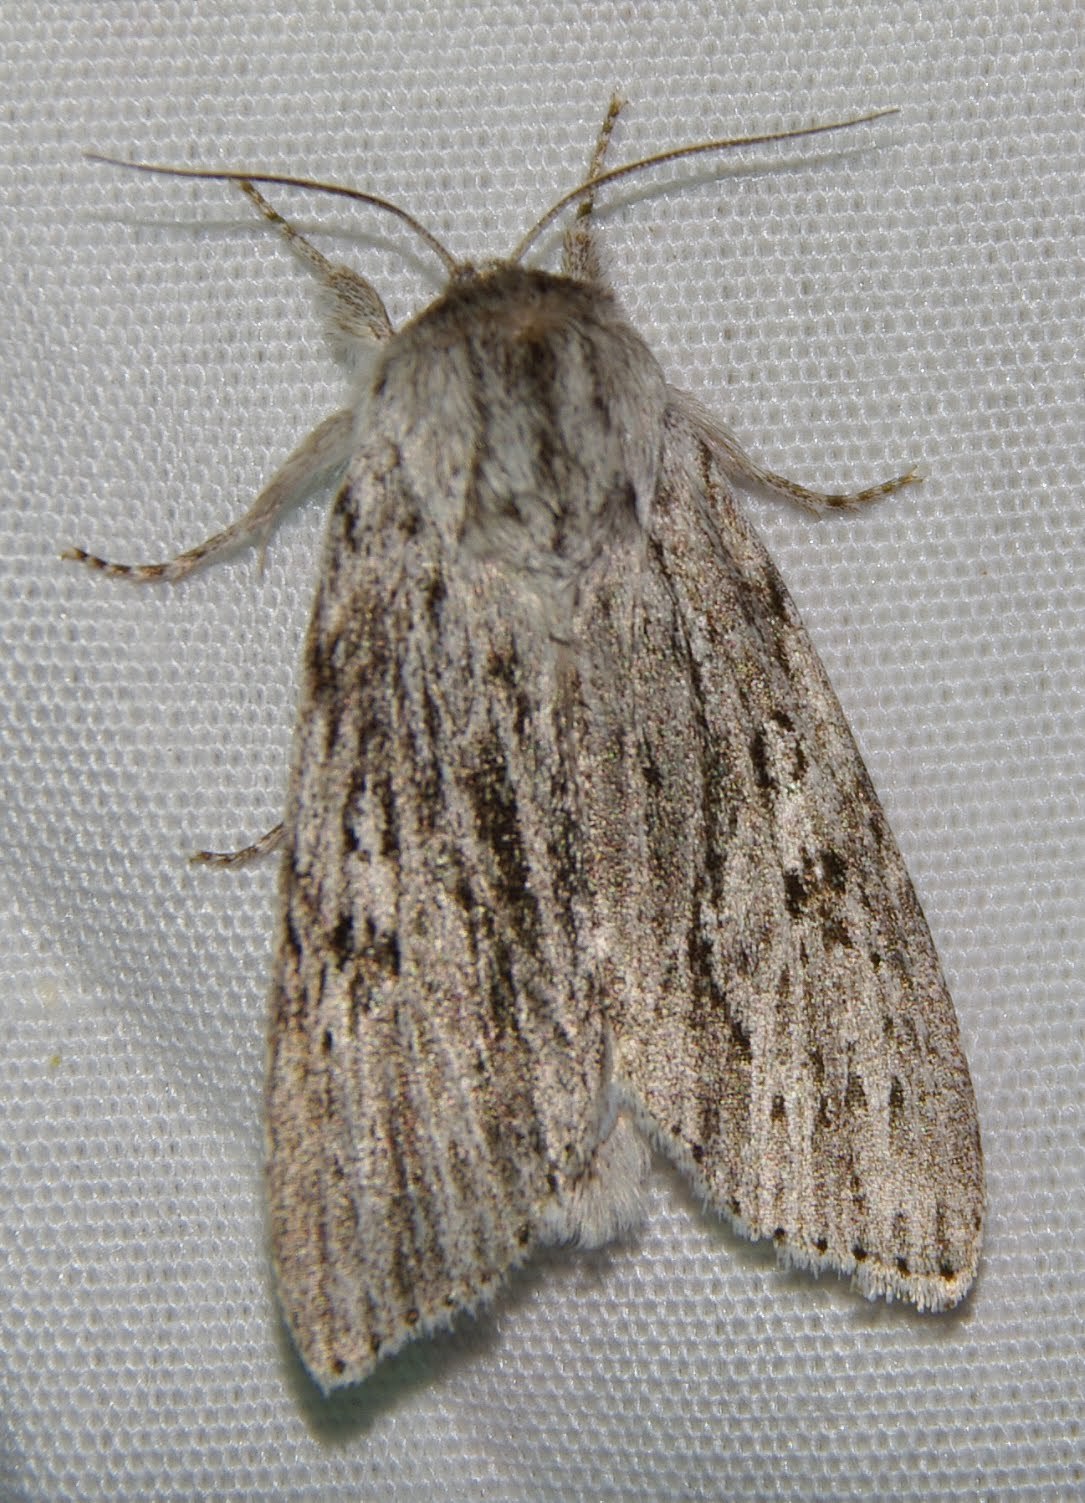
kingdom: Animalia
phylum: Arthropoda
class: Insecta
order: Lepidoptera
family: Noctuidae
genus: Acronicta
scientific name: Acronicta oblinita
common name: Smeared dagger
